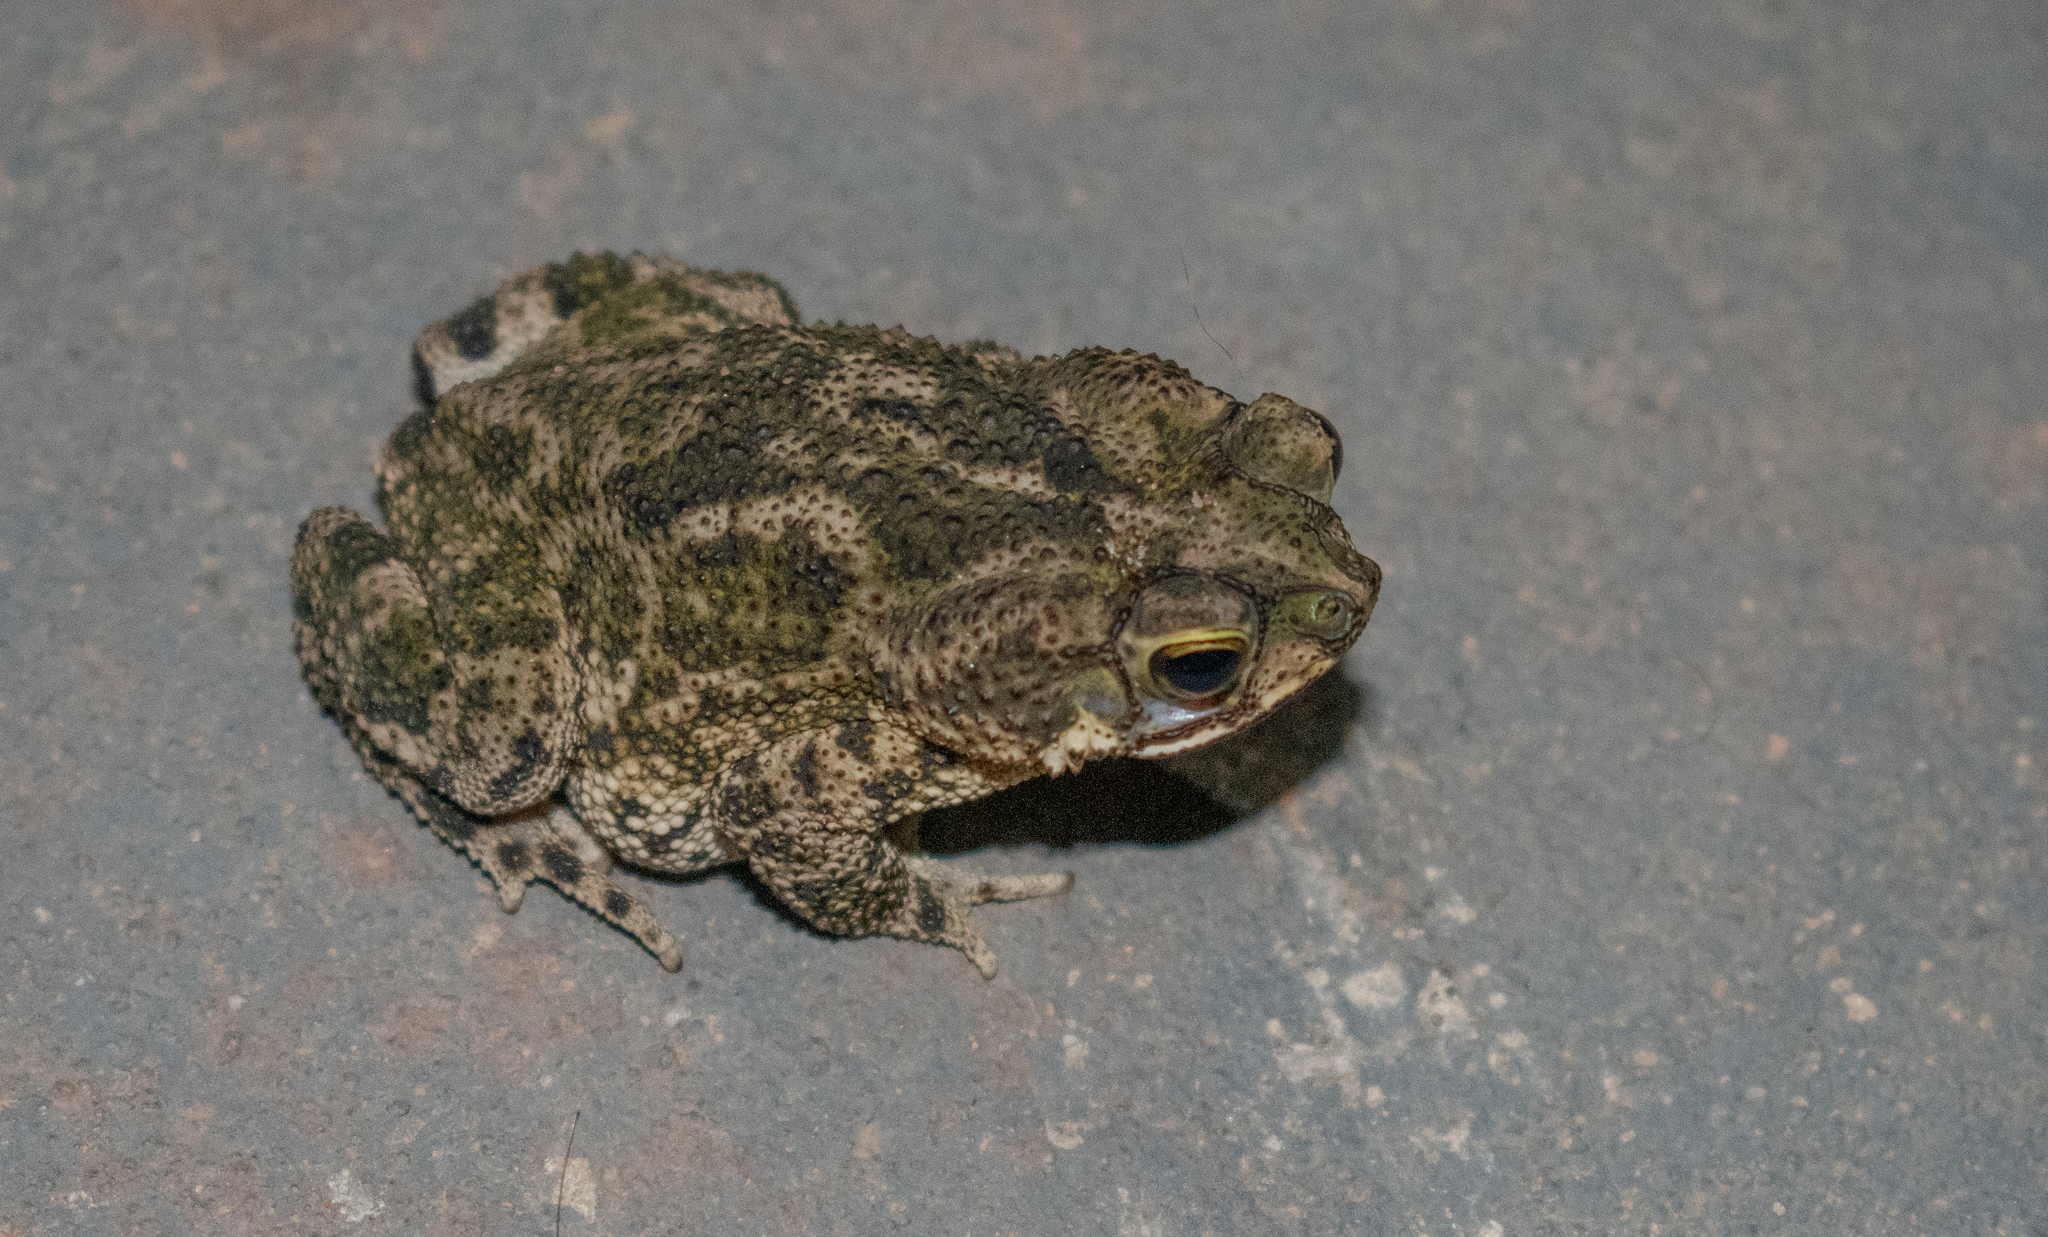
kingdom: Animalia
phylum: Chordata
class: Amphibia
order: Anura
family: Bufonidae
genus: Rhinella
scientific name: Rhinella merianae
